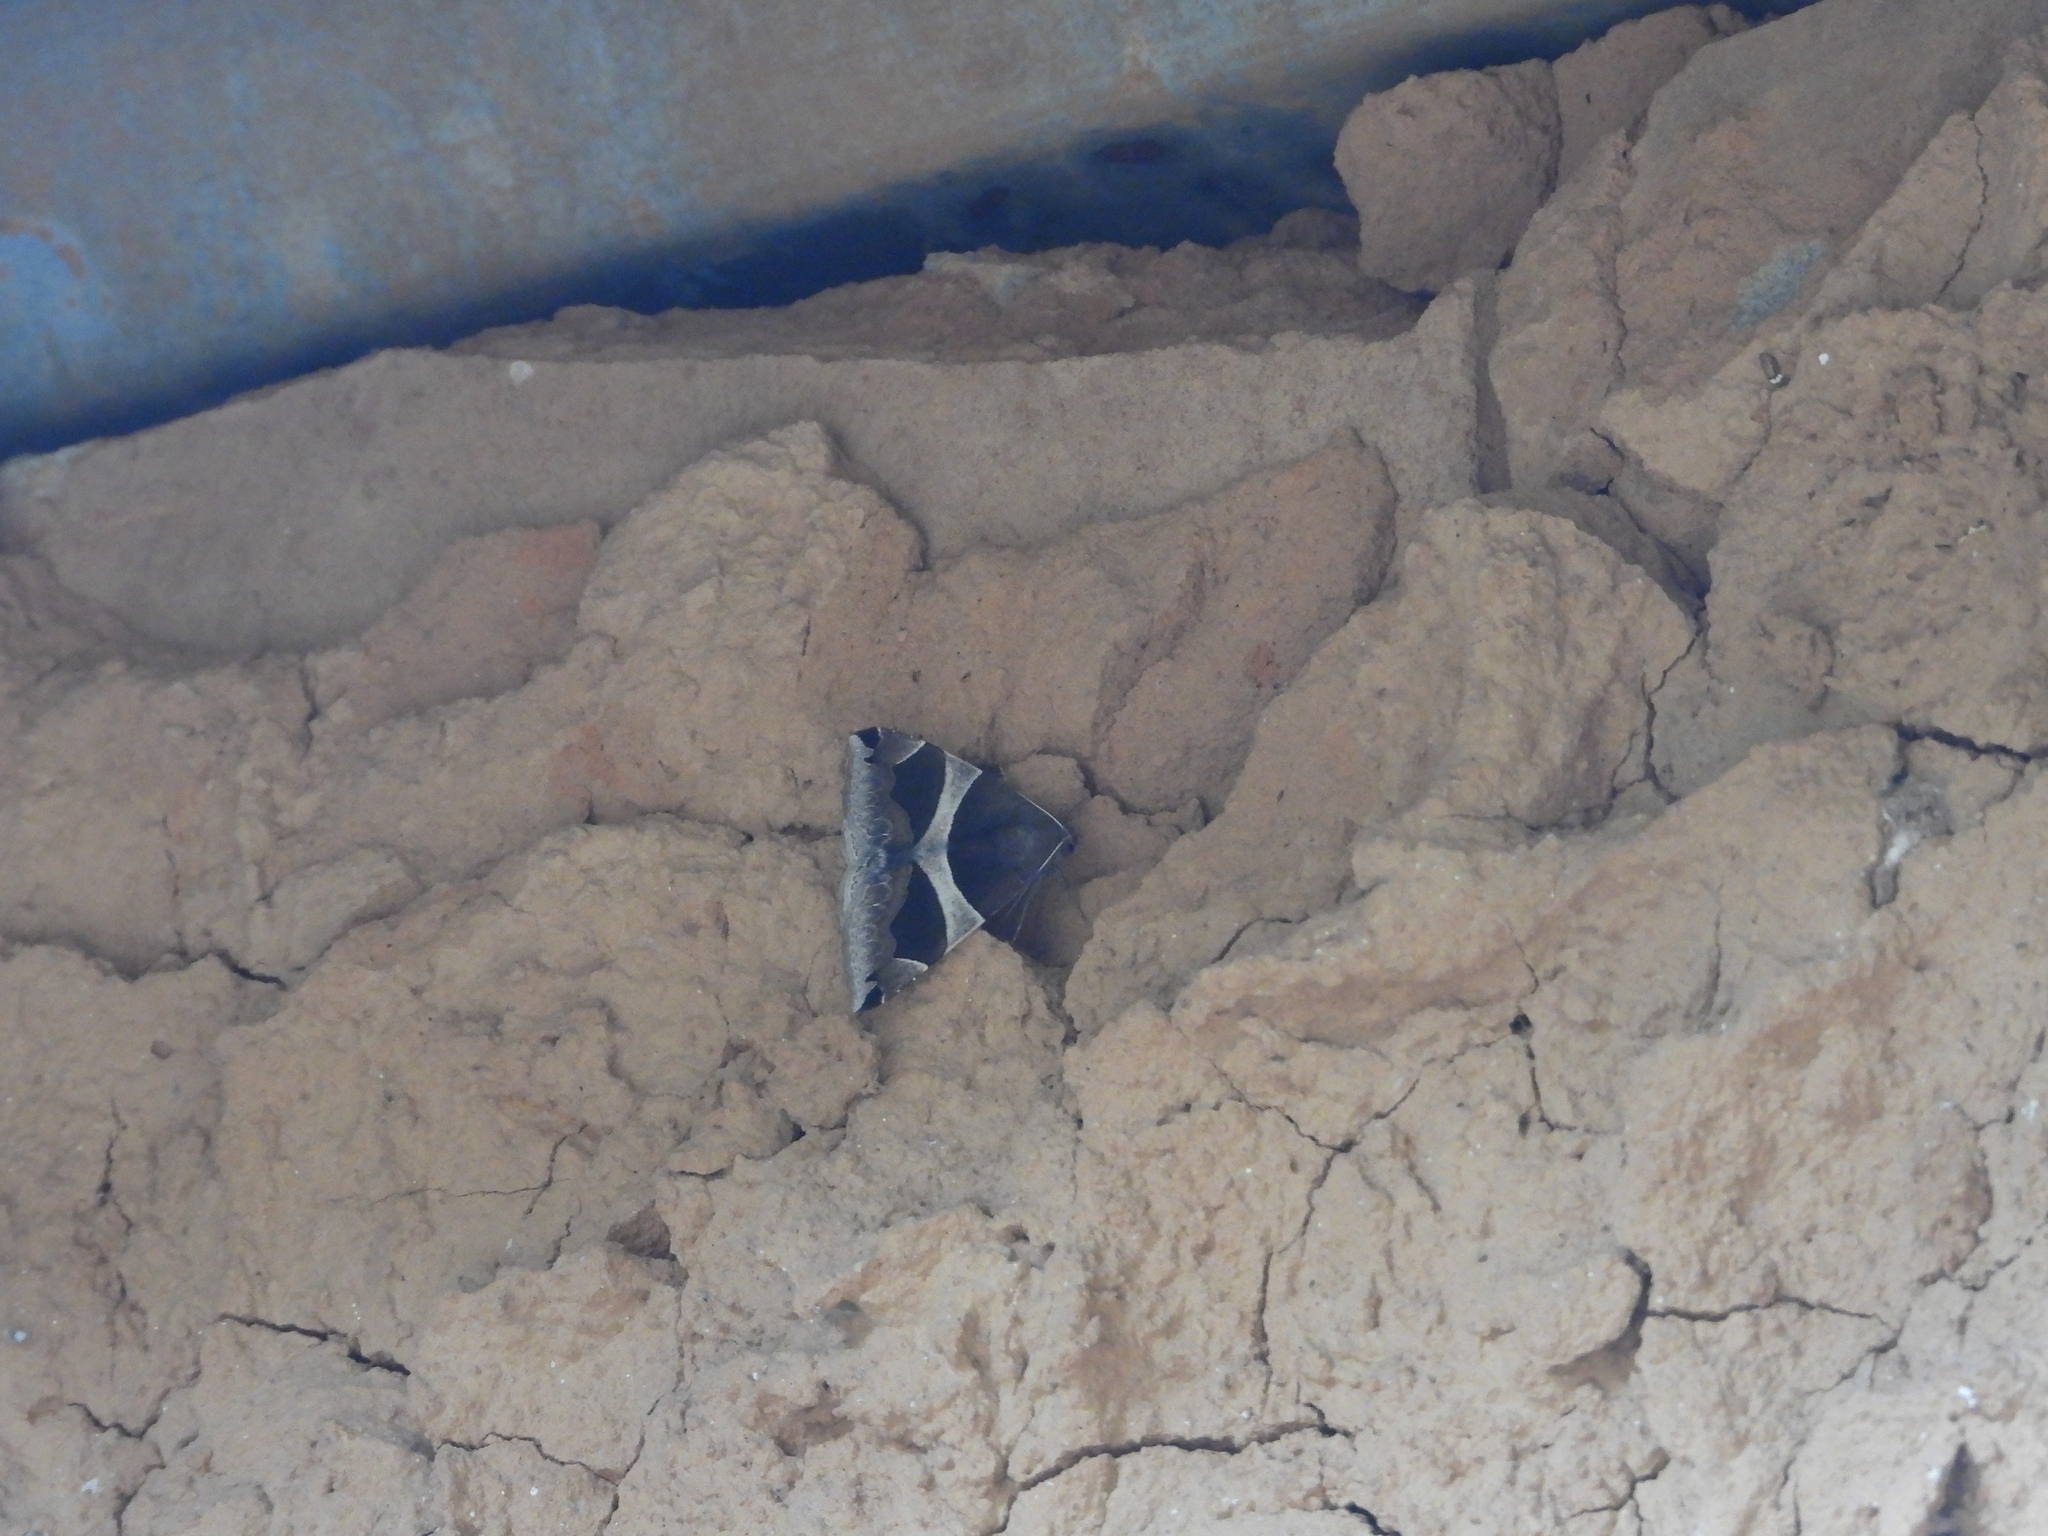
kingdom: Animalia
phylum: Arthropoda
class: Insecta
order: Lepidoptera
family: Erebidae
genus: Dysgonia
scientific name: Dysgonia torrida
